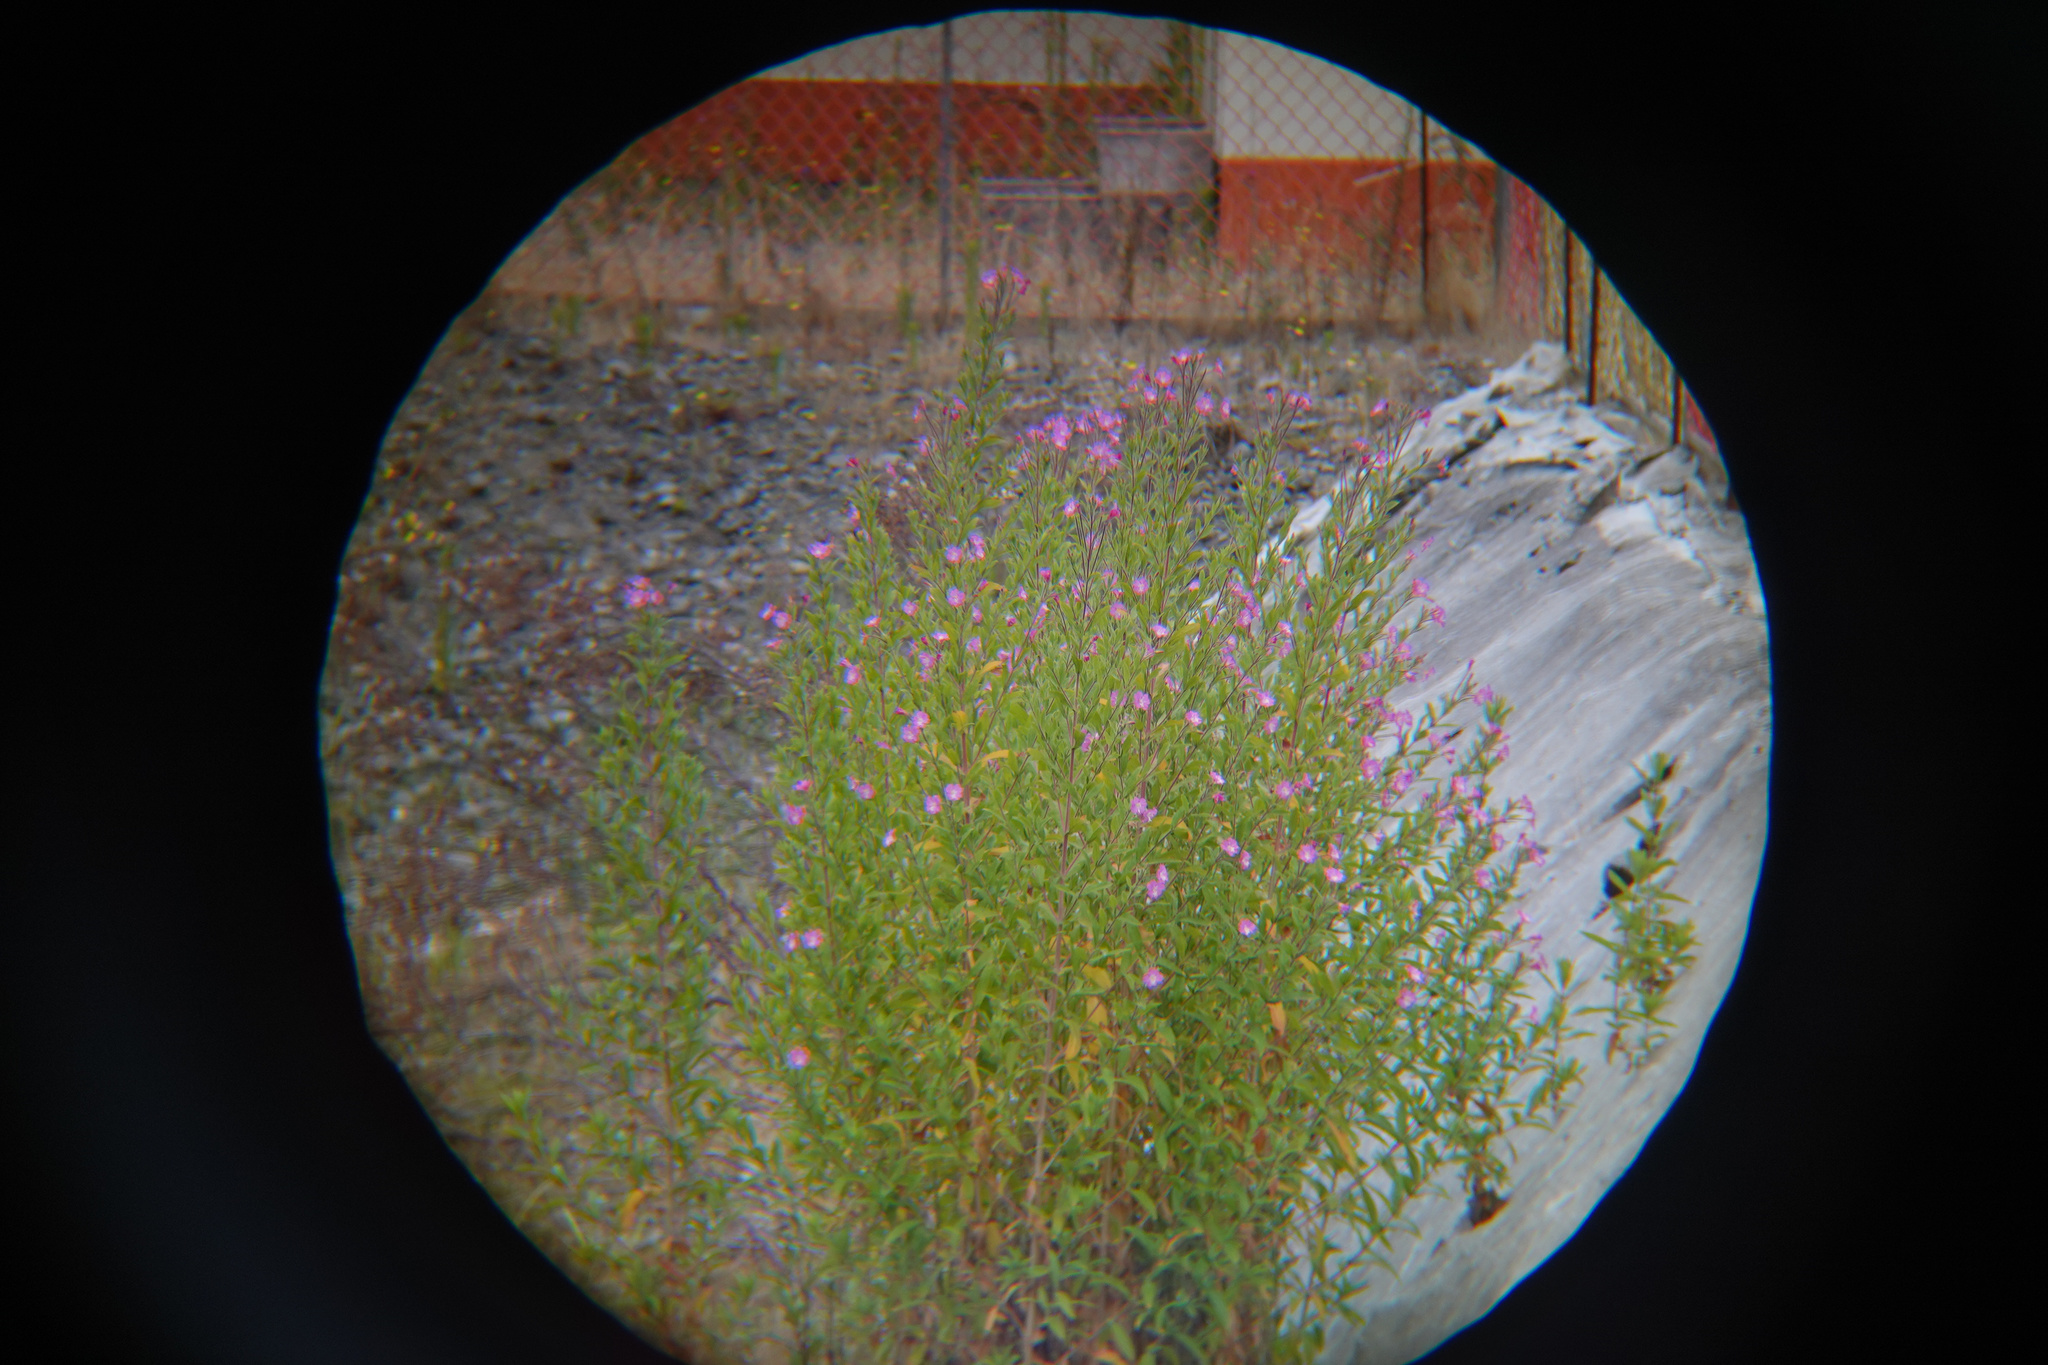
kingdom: Plantae
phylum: Tracheophyta
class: Magnoliopsida
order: Myrtales
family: Onagraceae
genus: Epilobium
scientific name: Epilobium hirsutum
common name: Great willowherb
